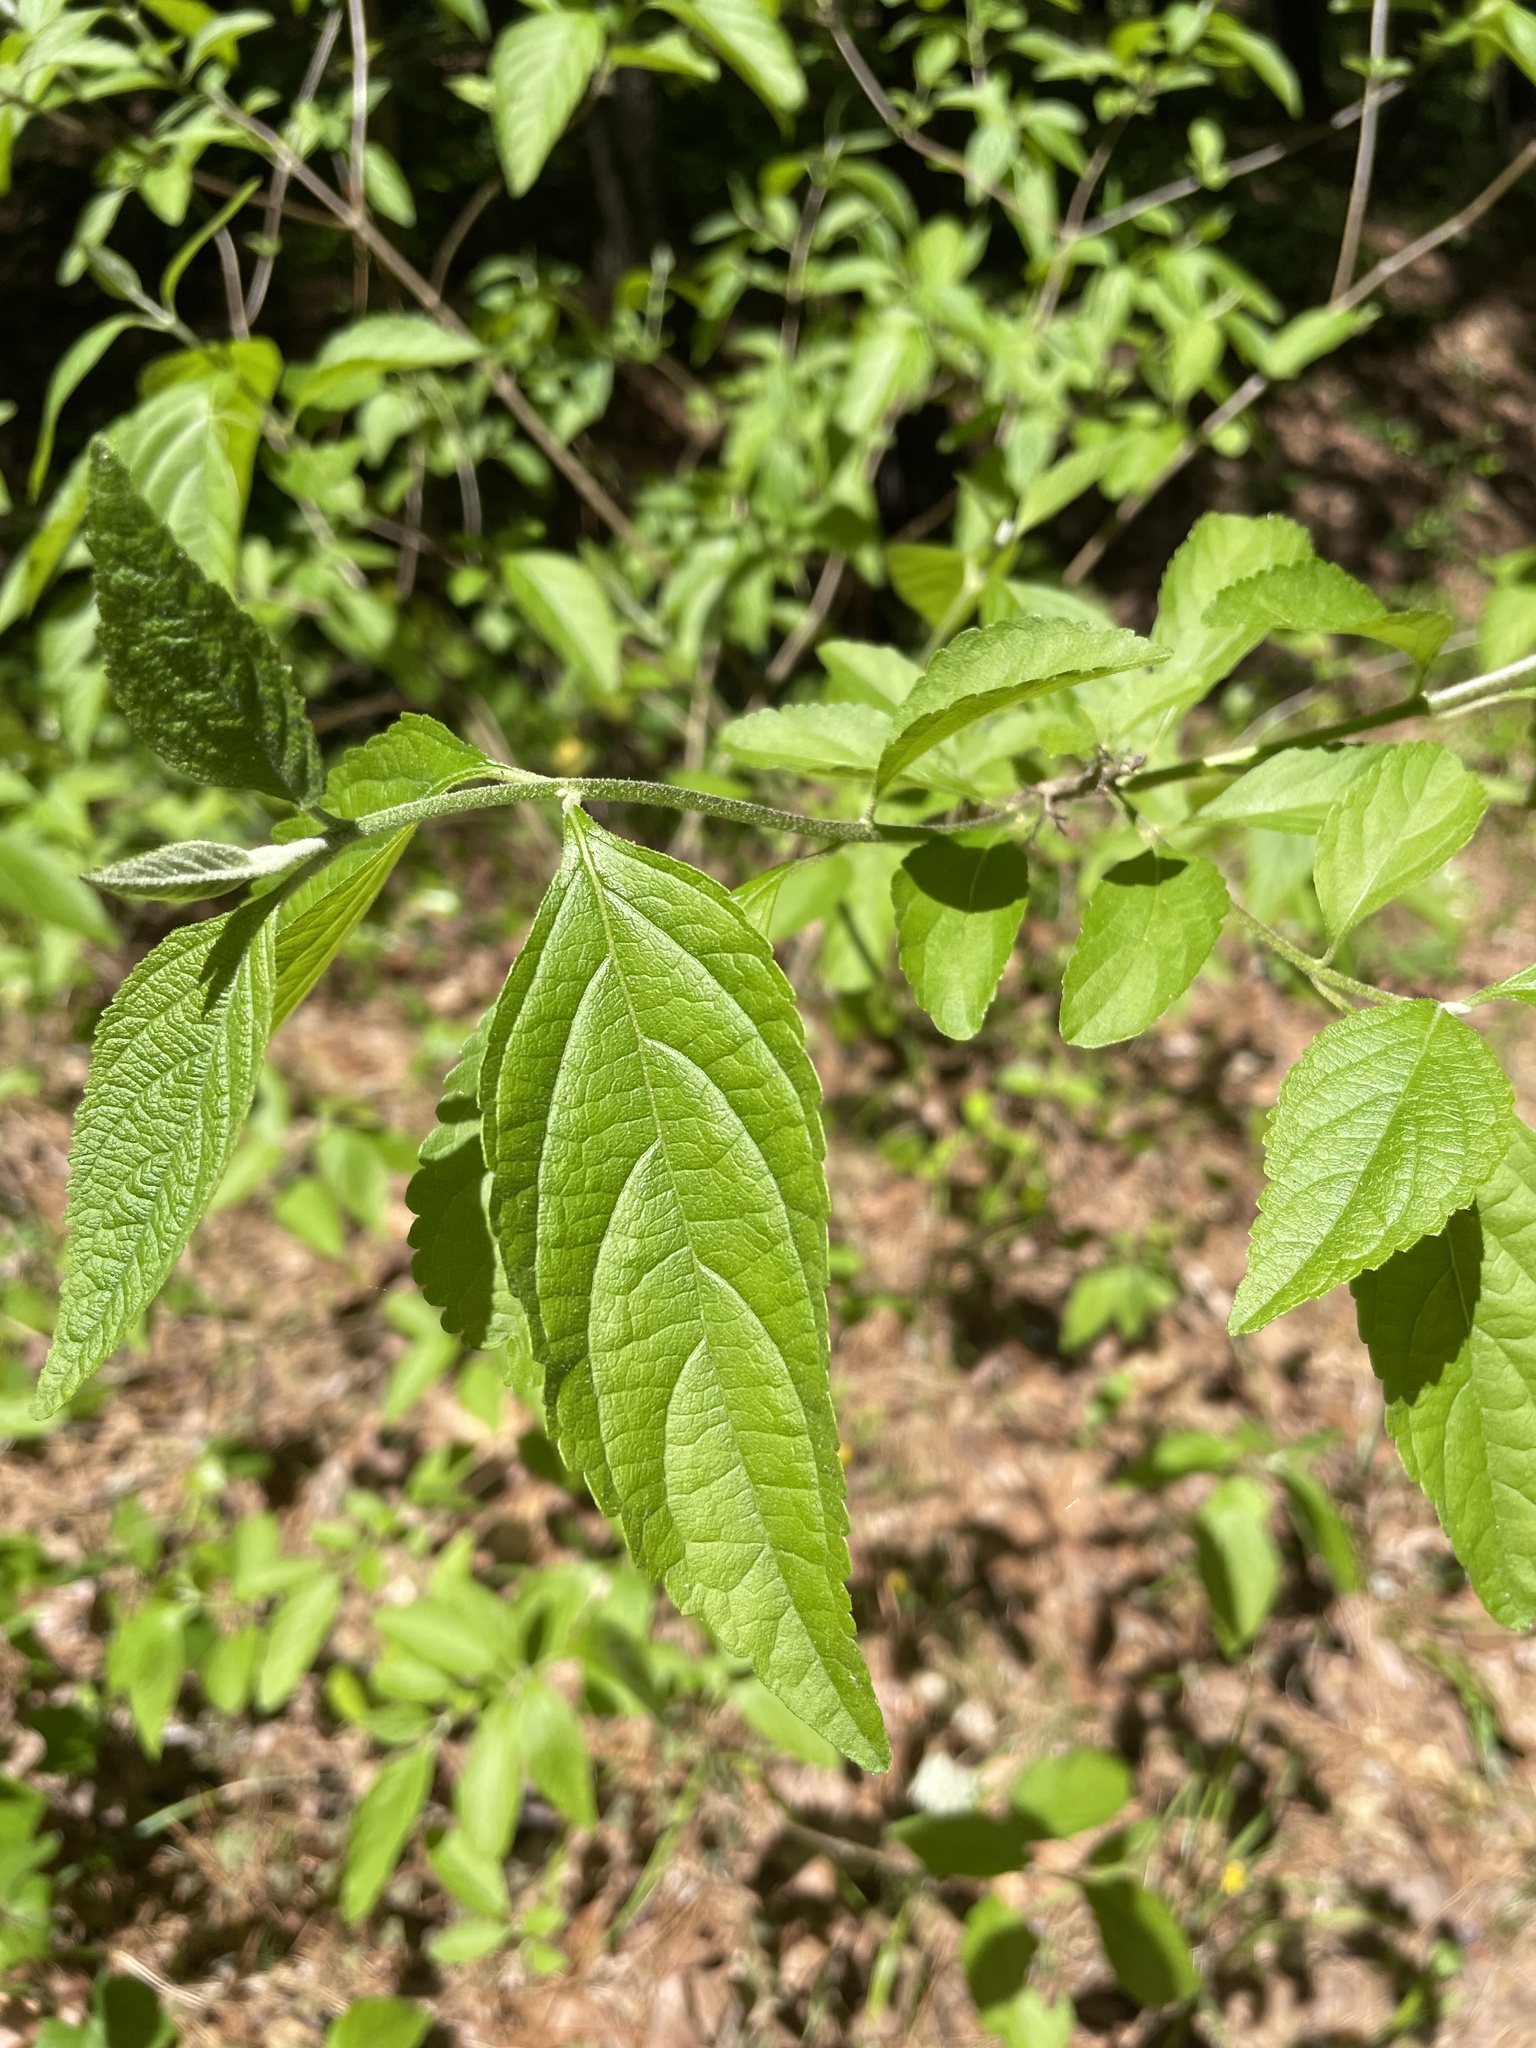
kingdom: Plantae
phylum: Tracheophyta
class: Magnoliopsida
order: Lamiales
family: Lamiaceae
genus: Callicarpa
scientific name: Callicarpa americana
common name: American beautyberry
